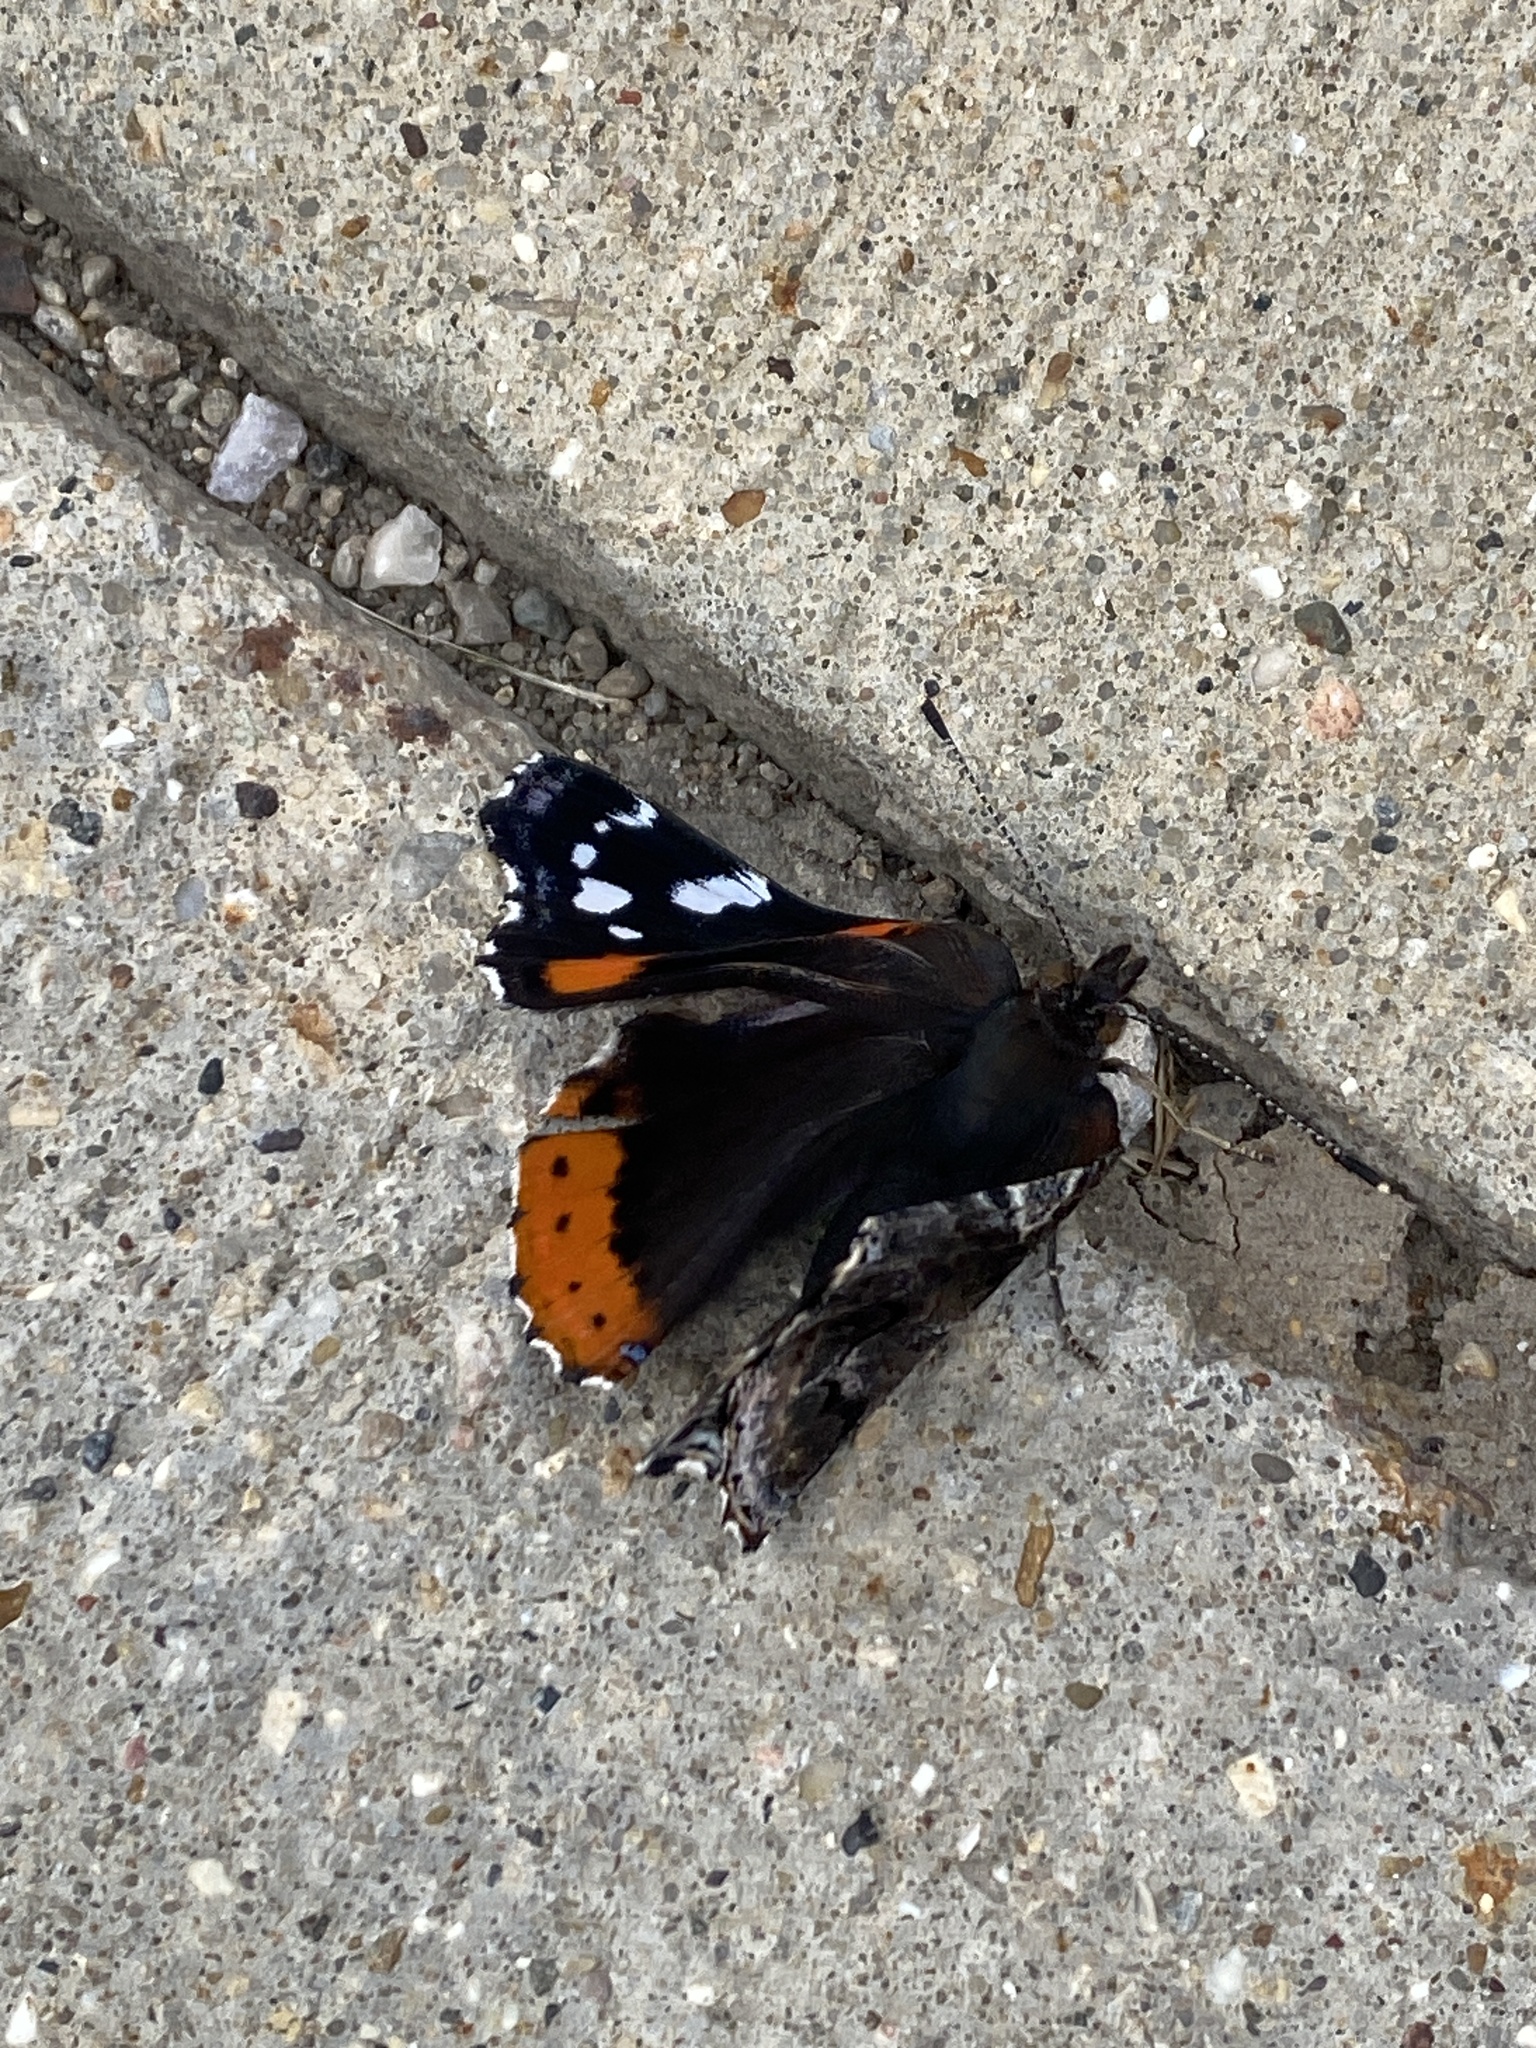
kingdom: Animalia
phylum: Arthropoda
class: Insecta
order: Lepidoptera
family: Nymphalidae
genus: Vanessa
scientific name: Vanessa atalanta
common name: Red admiral
